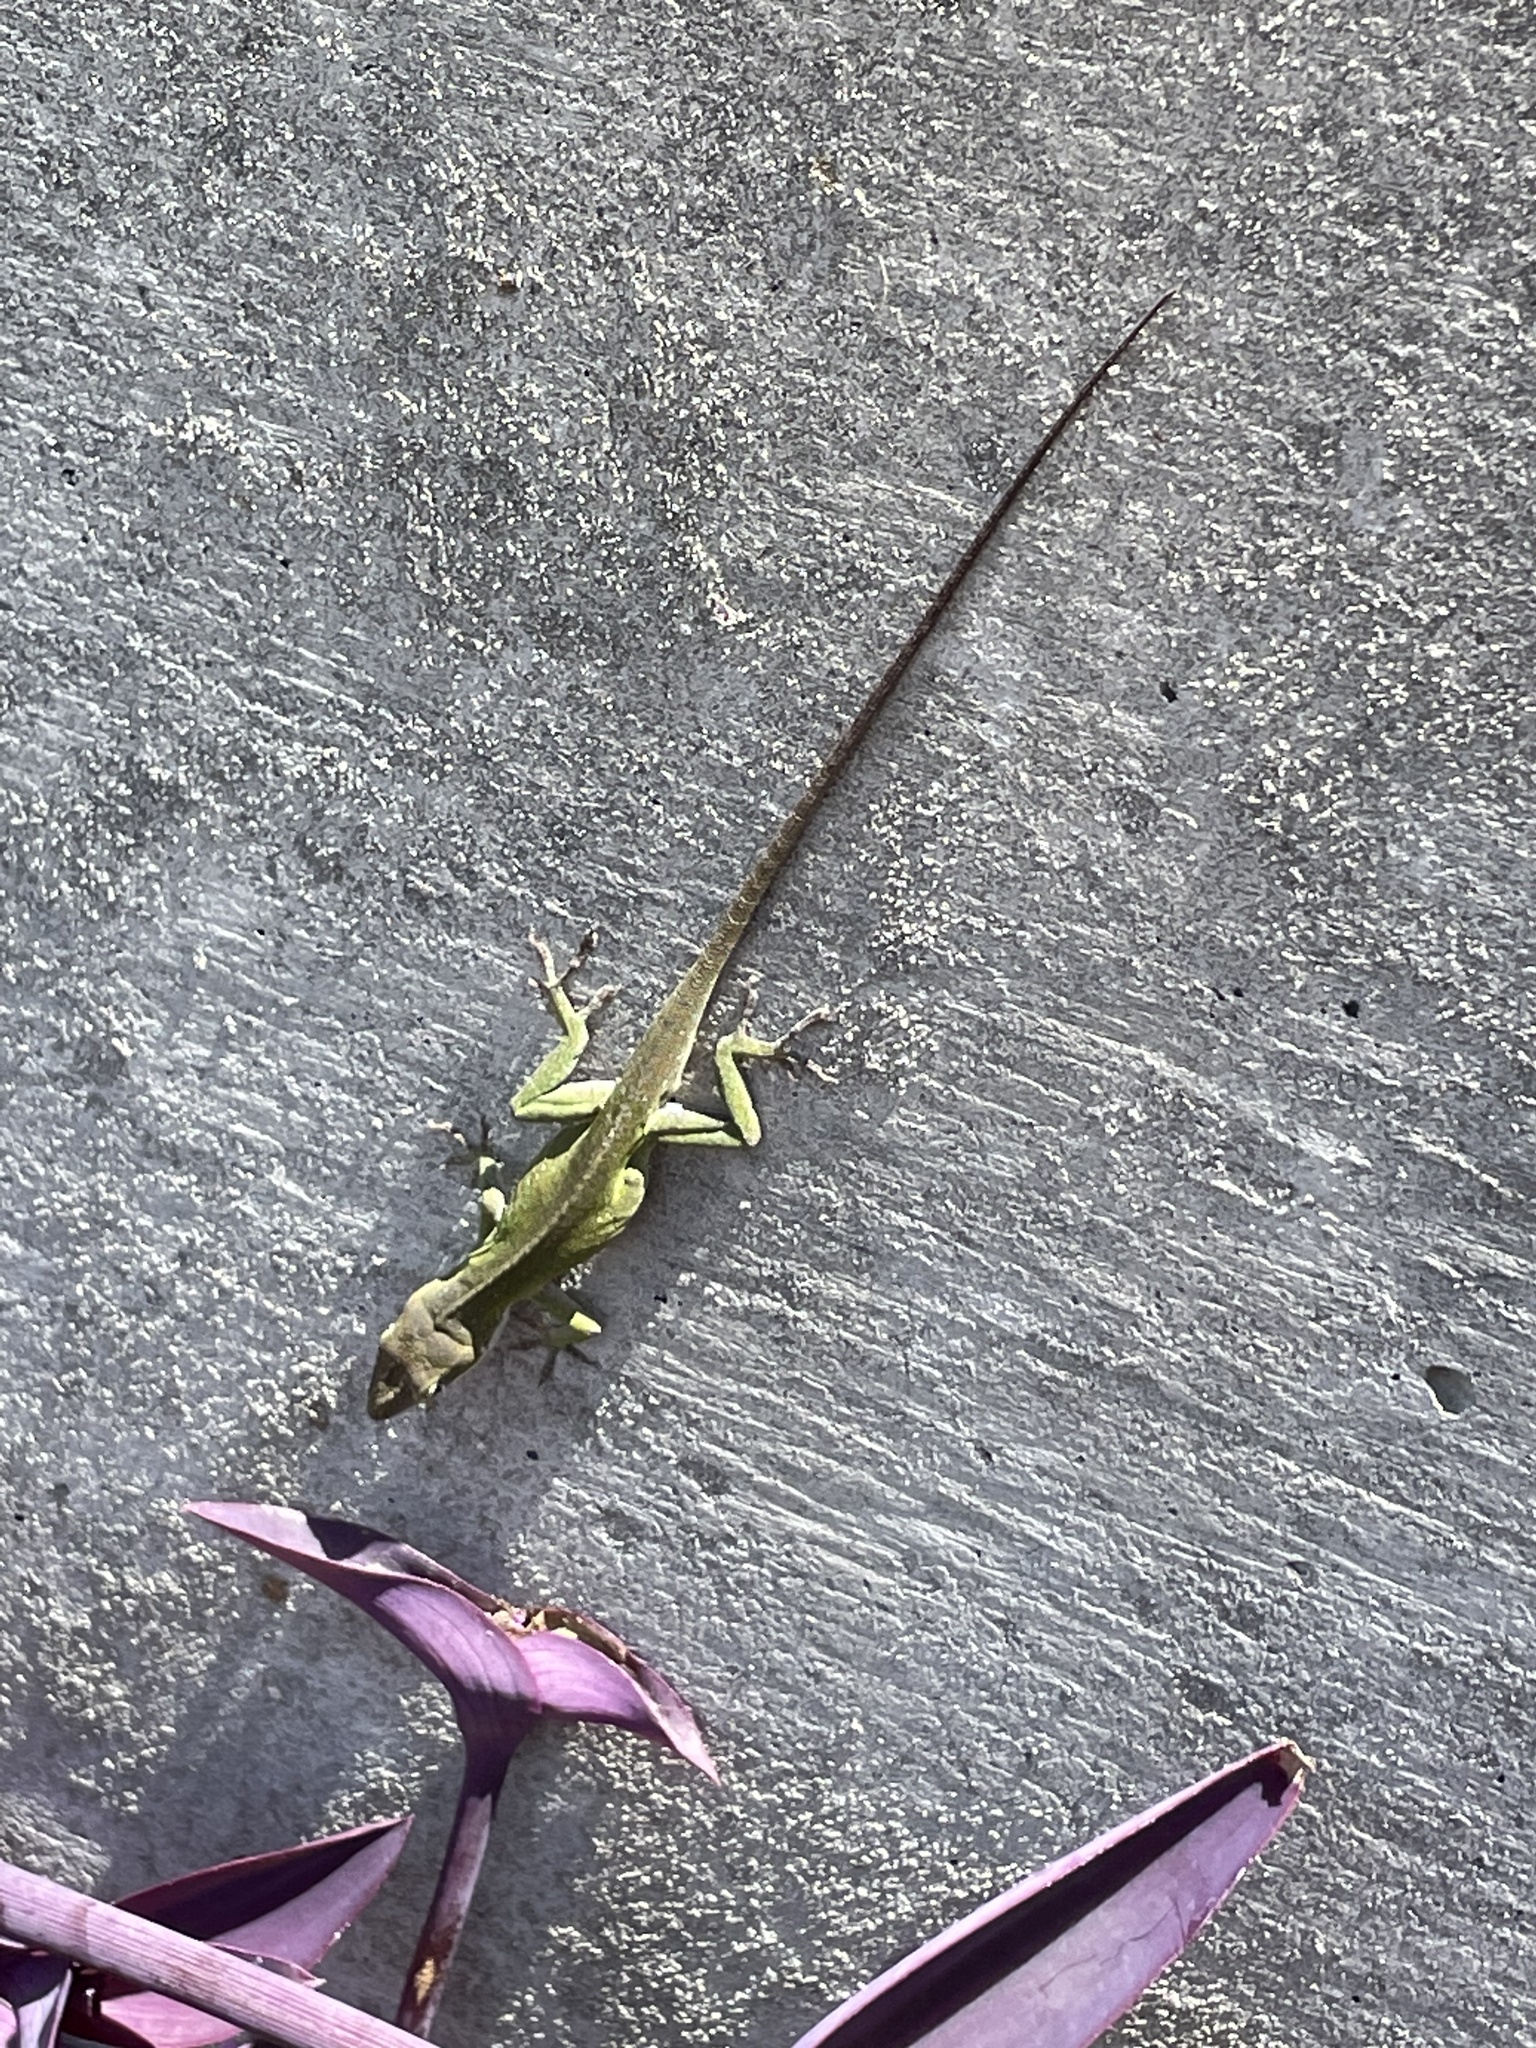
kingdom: Animalia
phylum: Chordata
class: Squamata
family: Dactyloidae
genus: Anolis
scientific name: Anolis carolinensis
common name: Green anole
